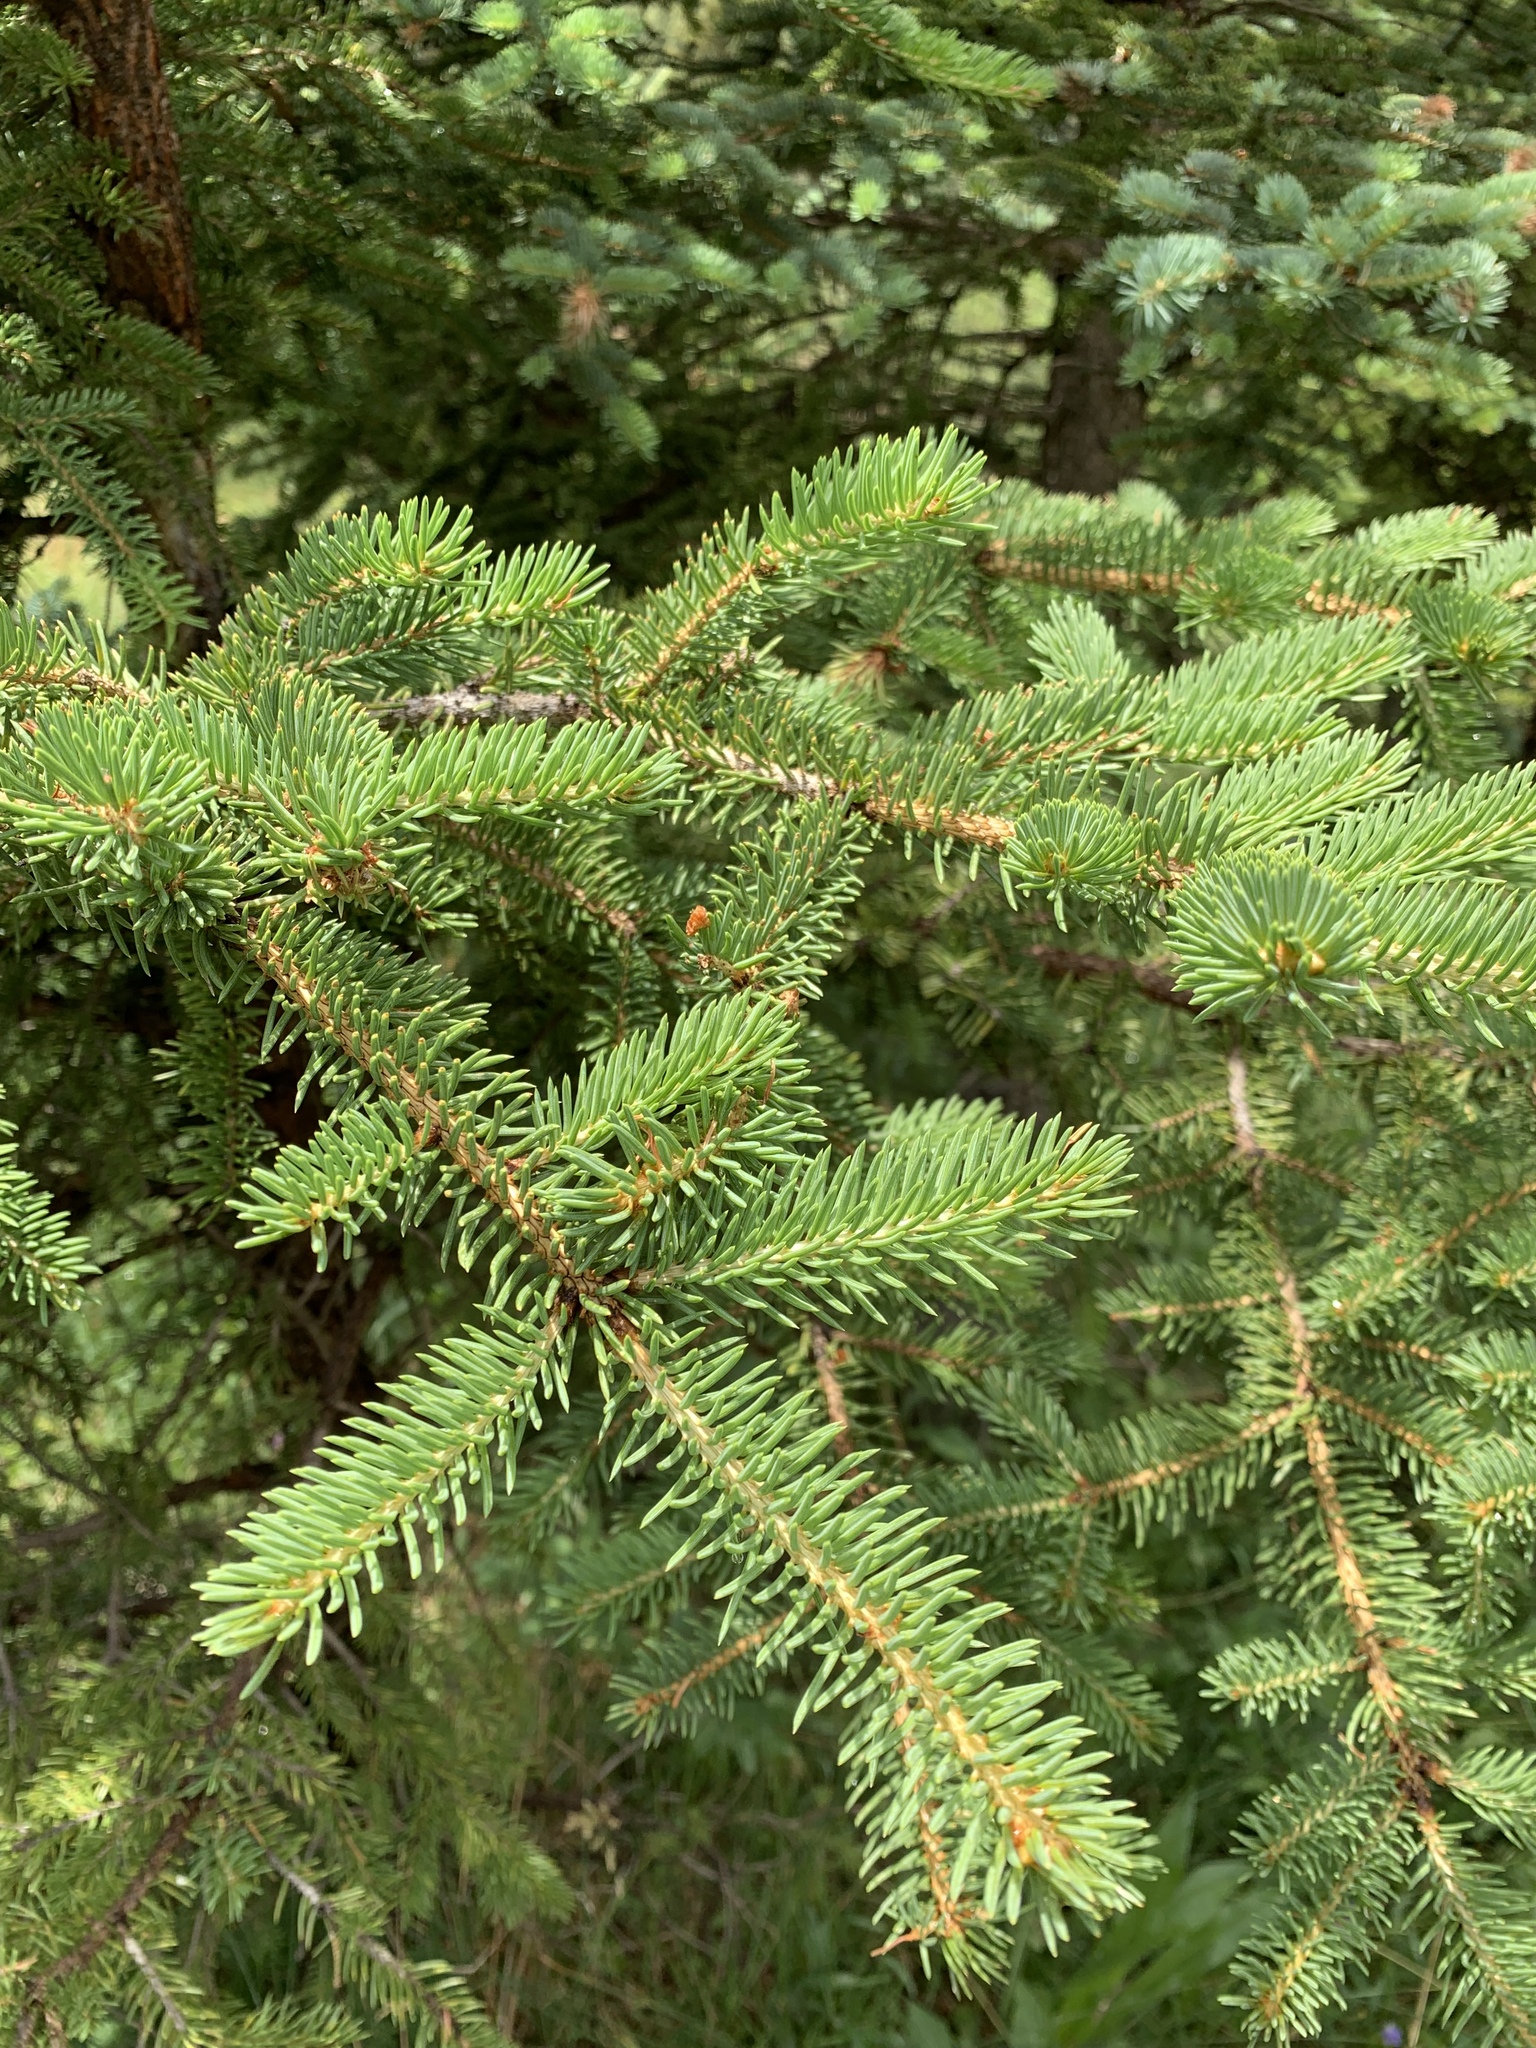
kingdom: Plantae
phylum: Tracheophyta
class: Pinopsida
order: Pinales
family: Pinaceae
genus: Picea
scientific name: Picea engelmannii
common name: Engelmann spruce
